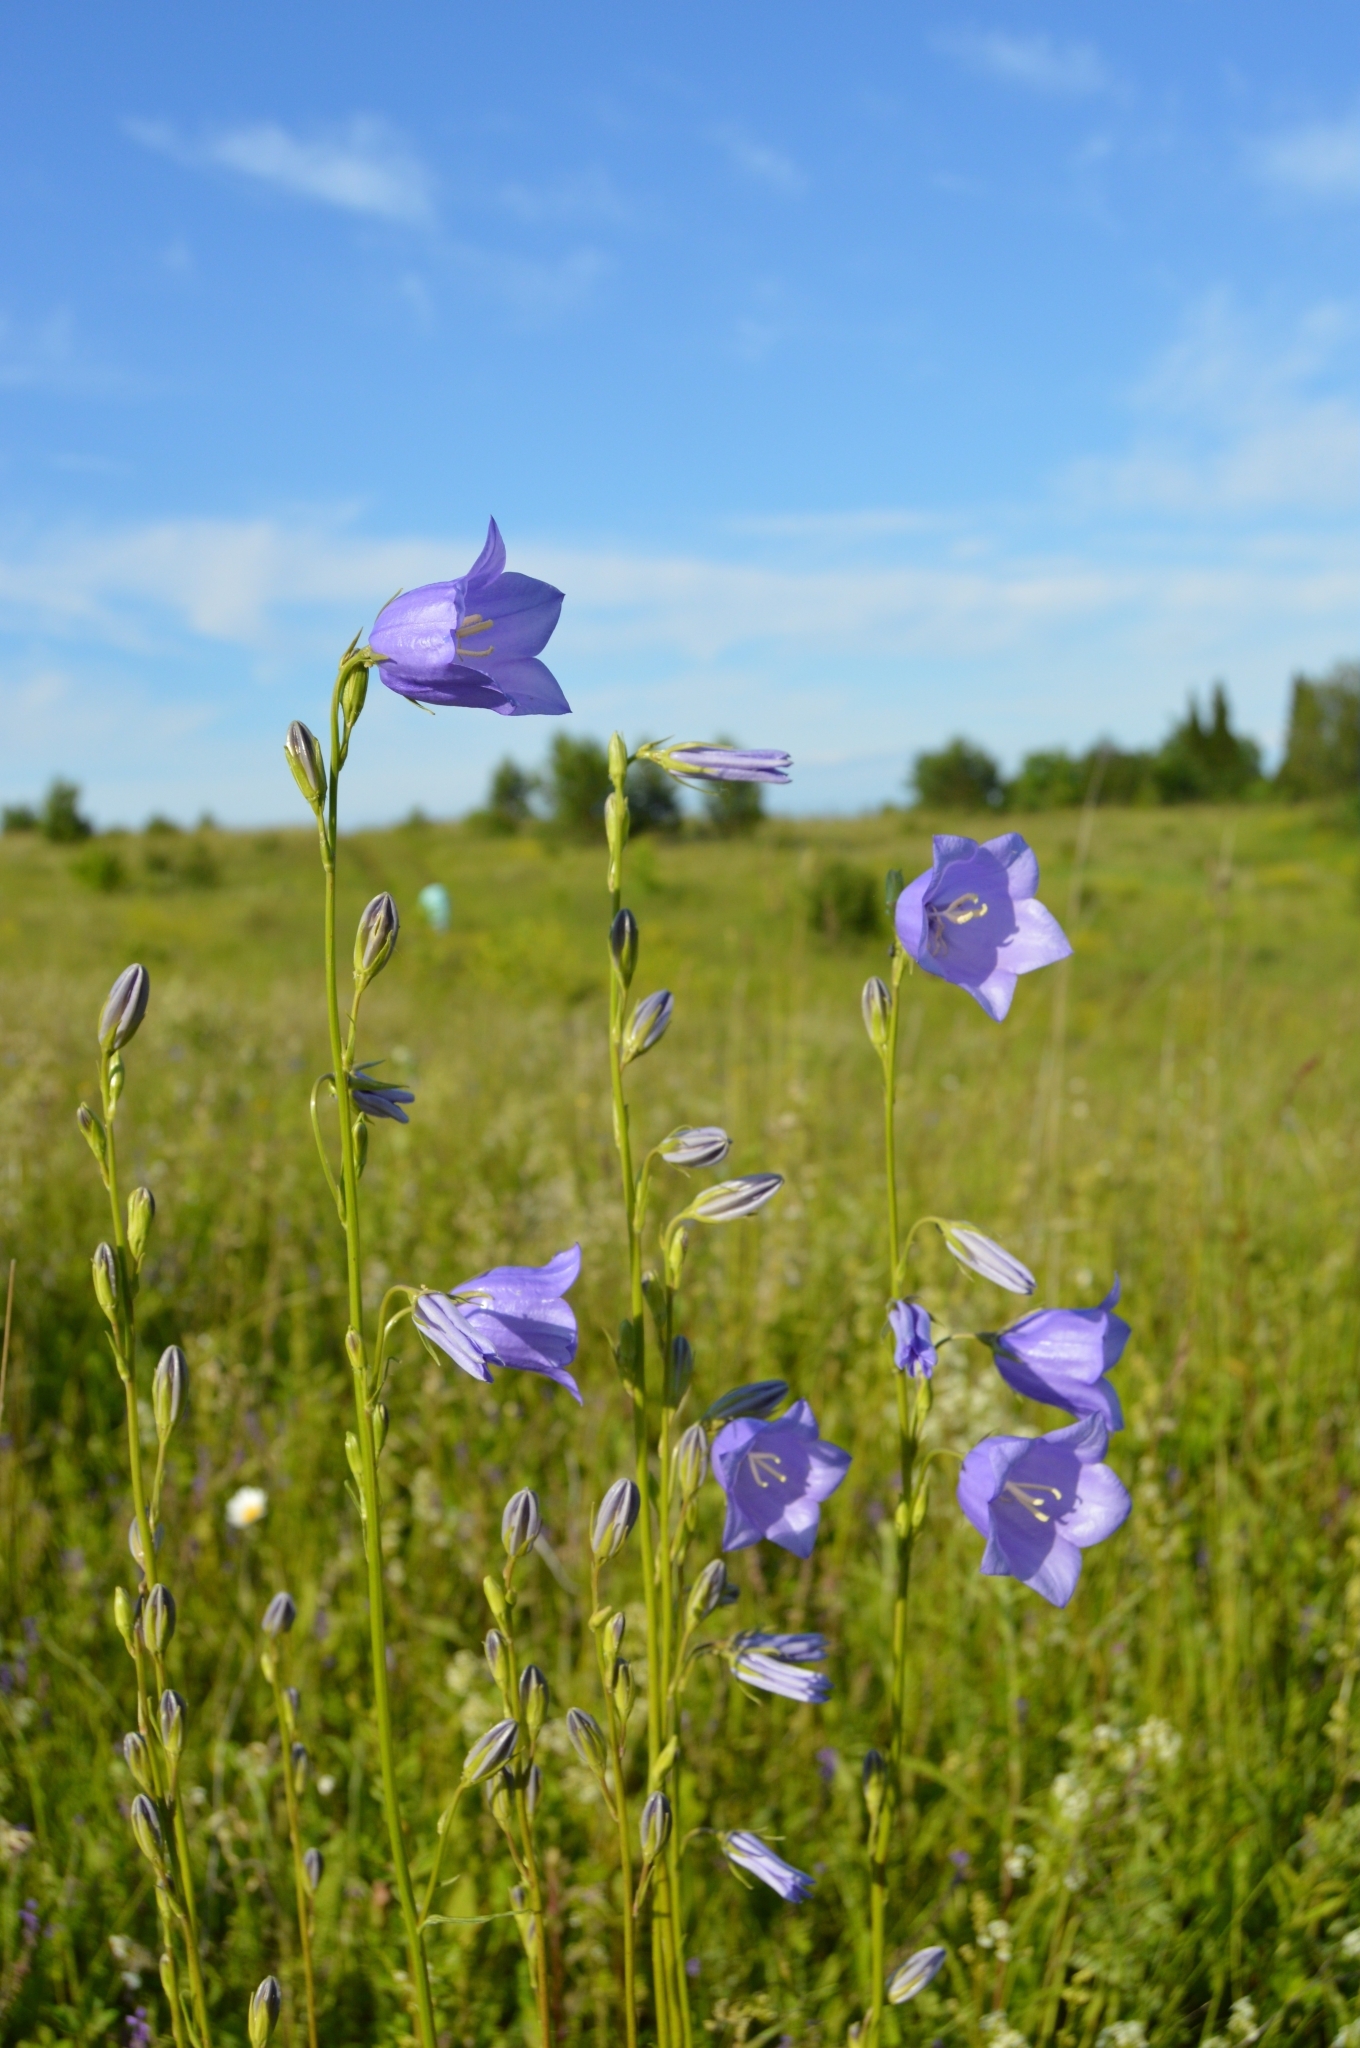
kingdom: Plantae
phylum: Tracheophyta
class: Magnoliopsida
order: Asterales
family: Campanulaceae
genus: Campanula
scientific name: Campanula persicifolia
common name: Peach-leaved bellflower
